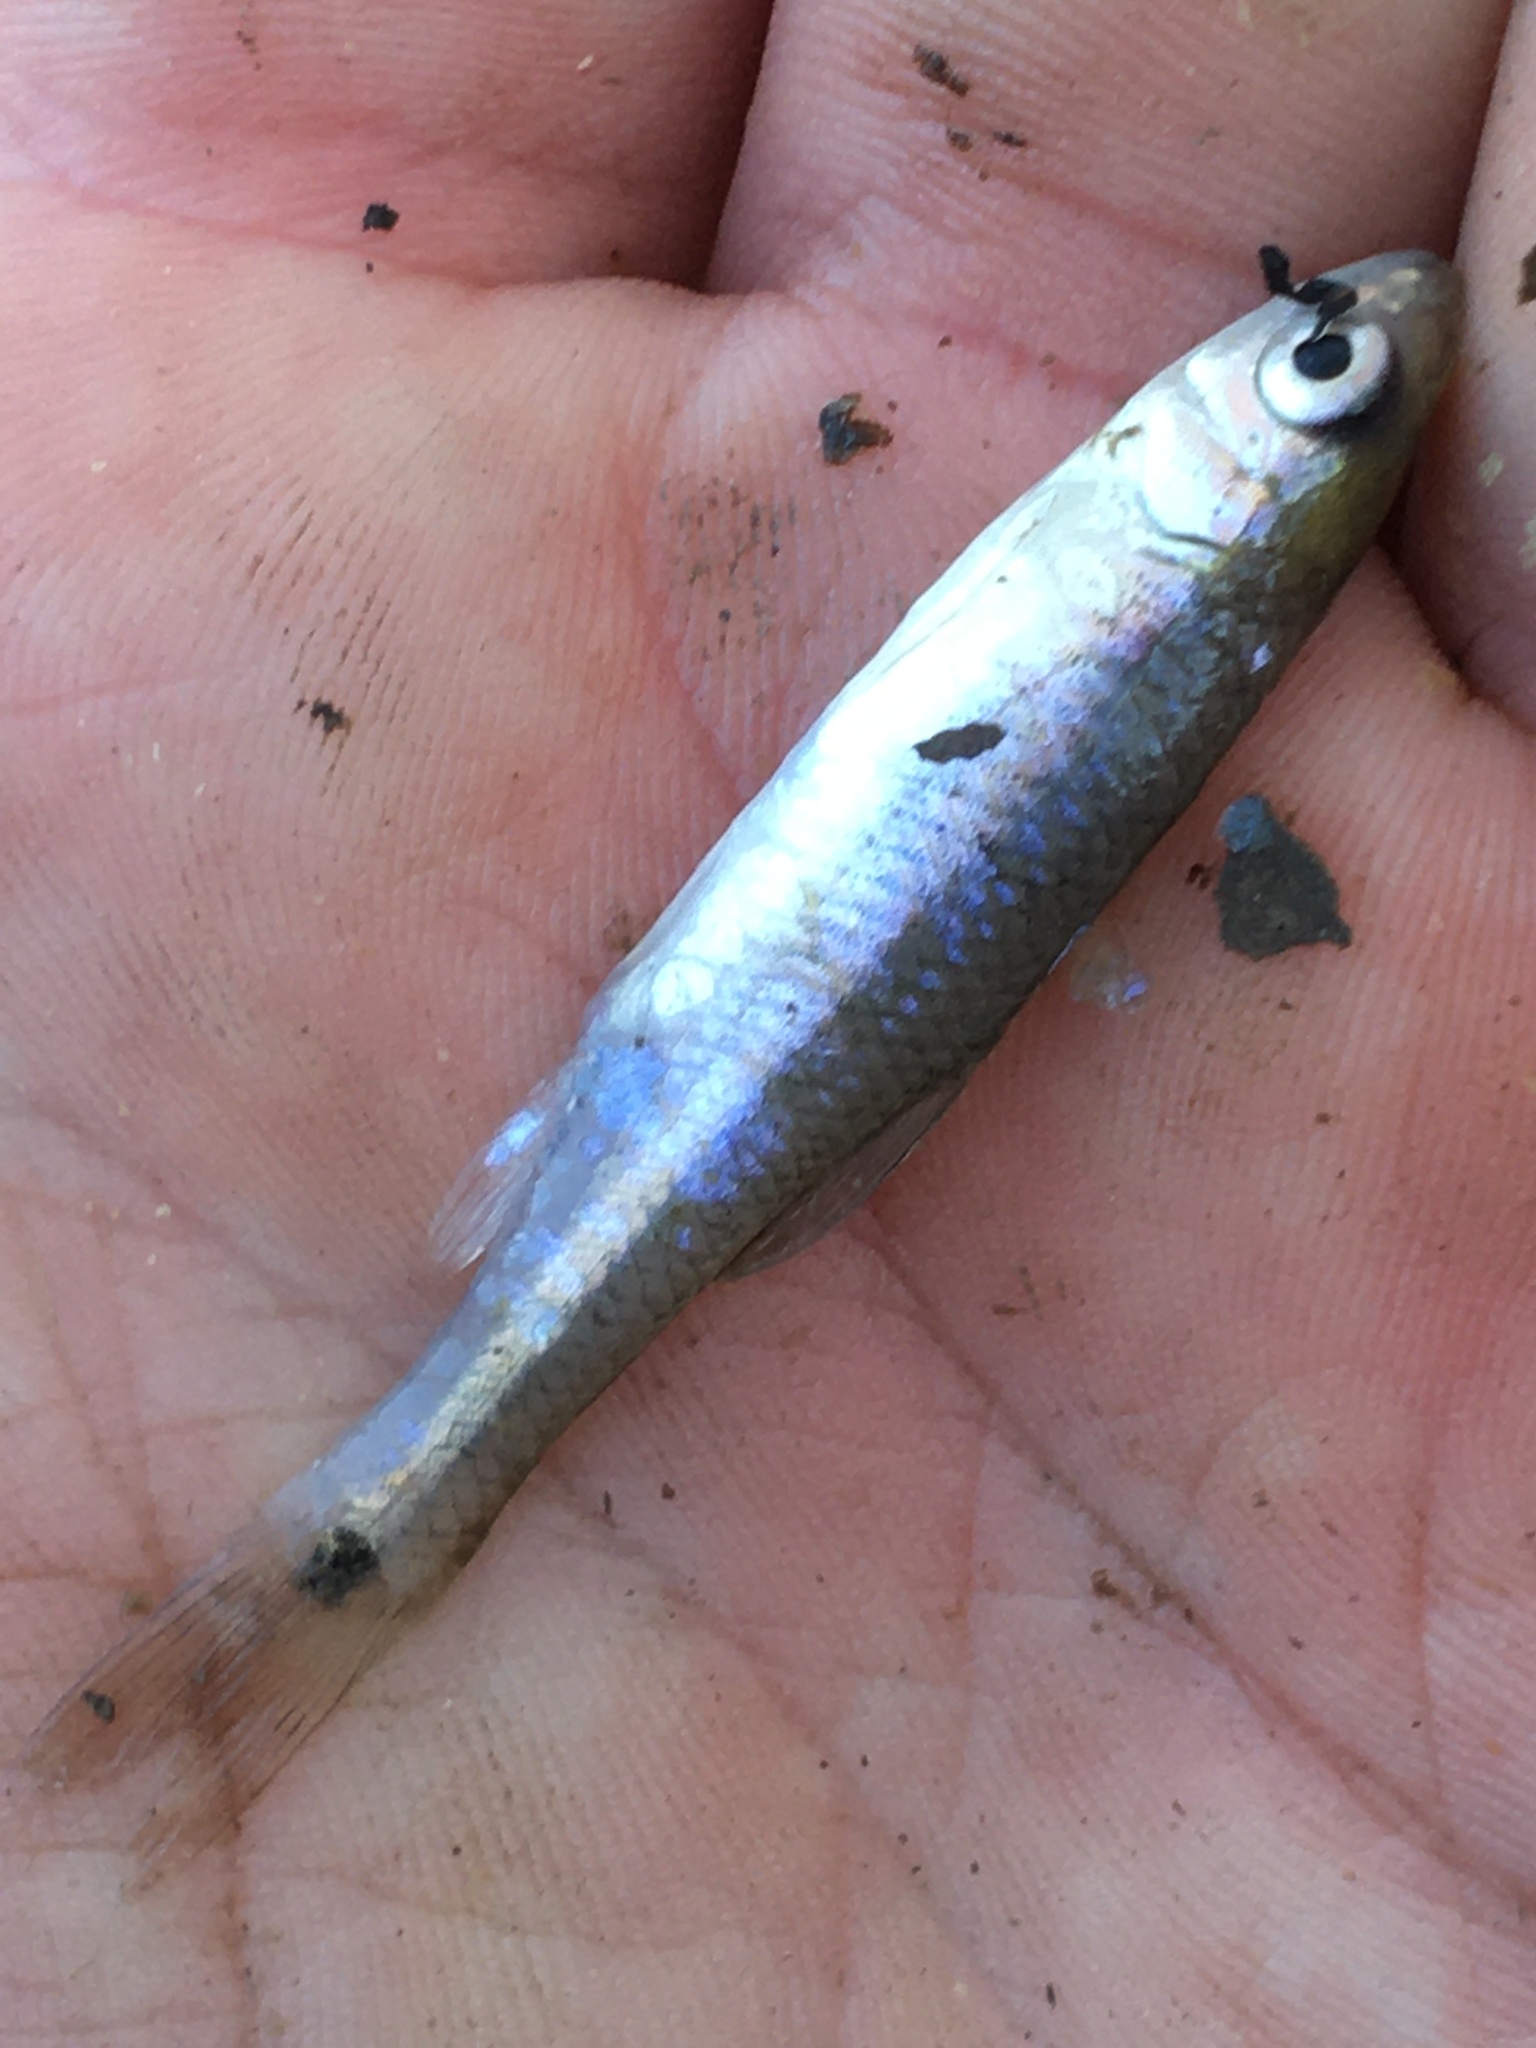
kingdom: Animalia
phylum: Chordata
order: Cypriniformes
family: Cyprinidae
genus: Cyprinella
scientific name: Cyprinella venusta
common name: Blacktail shiner
